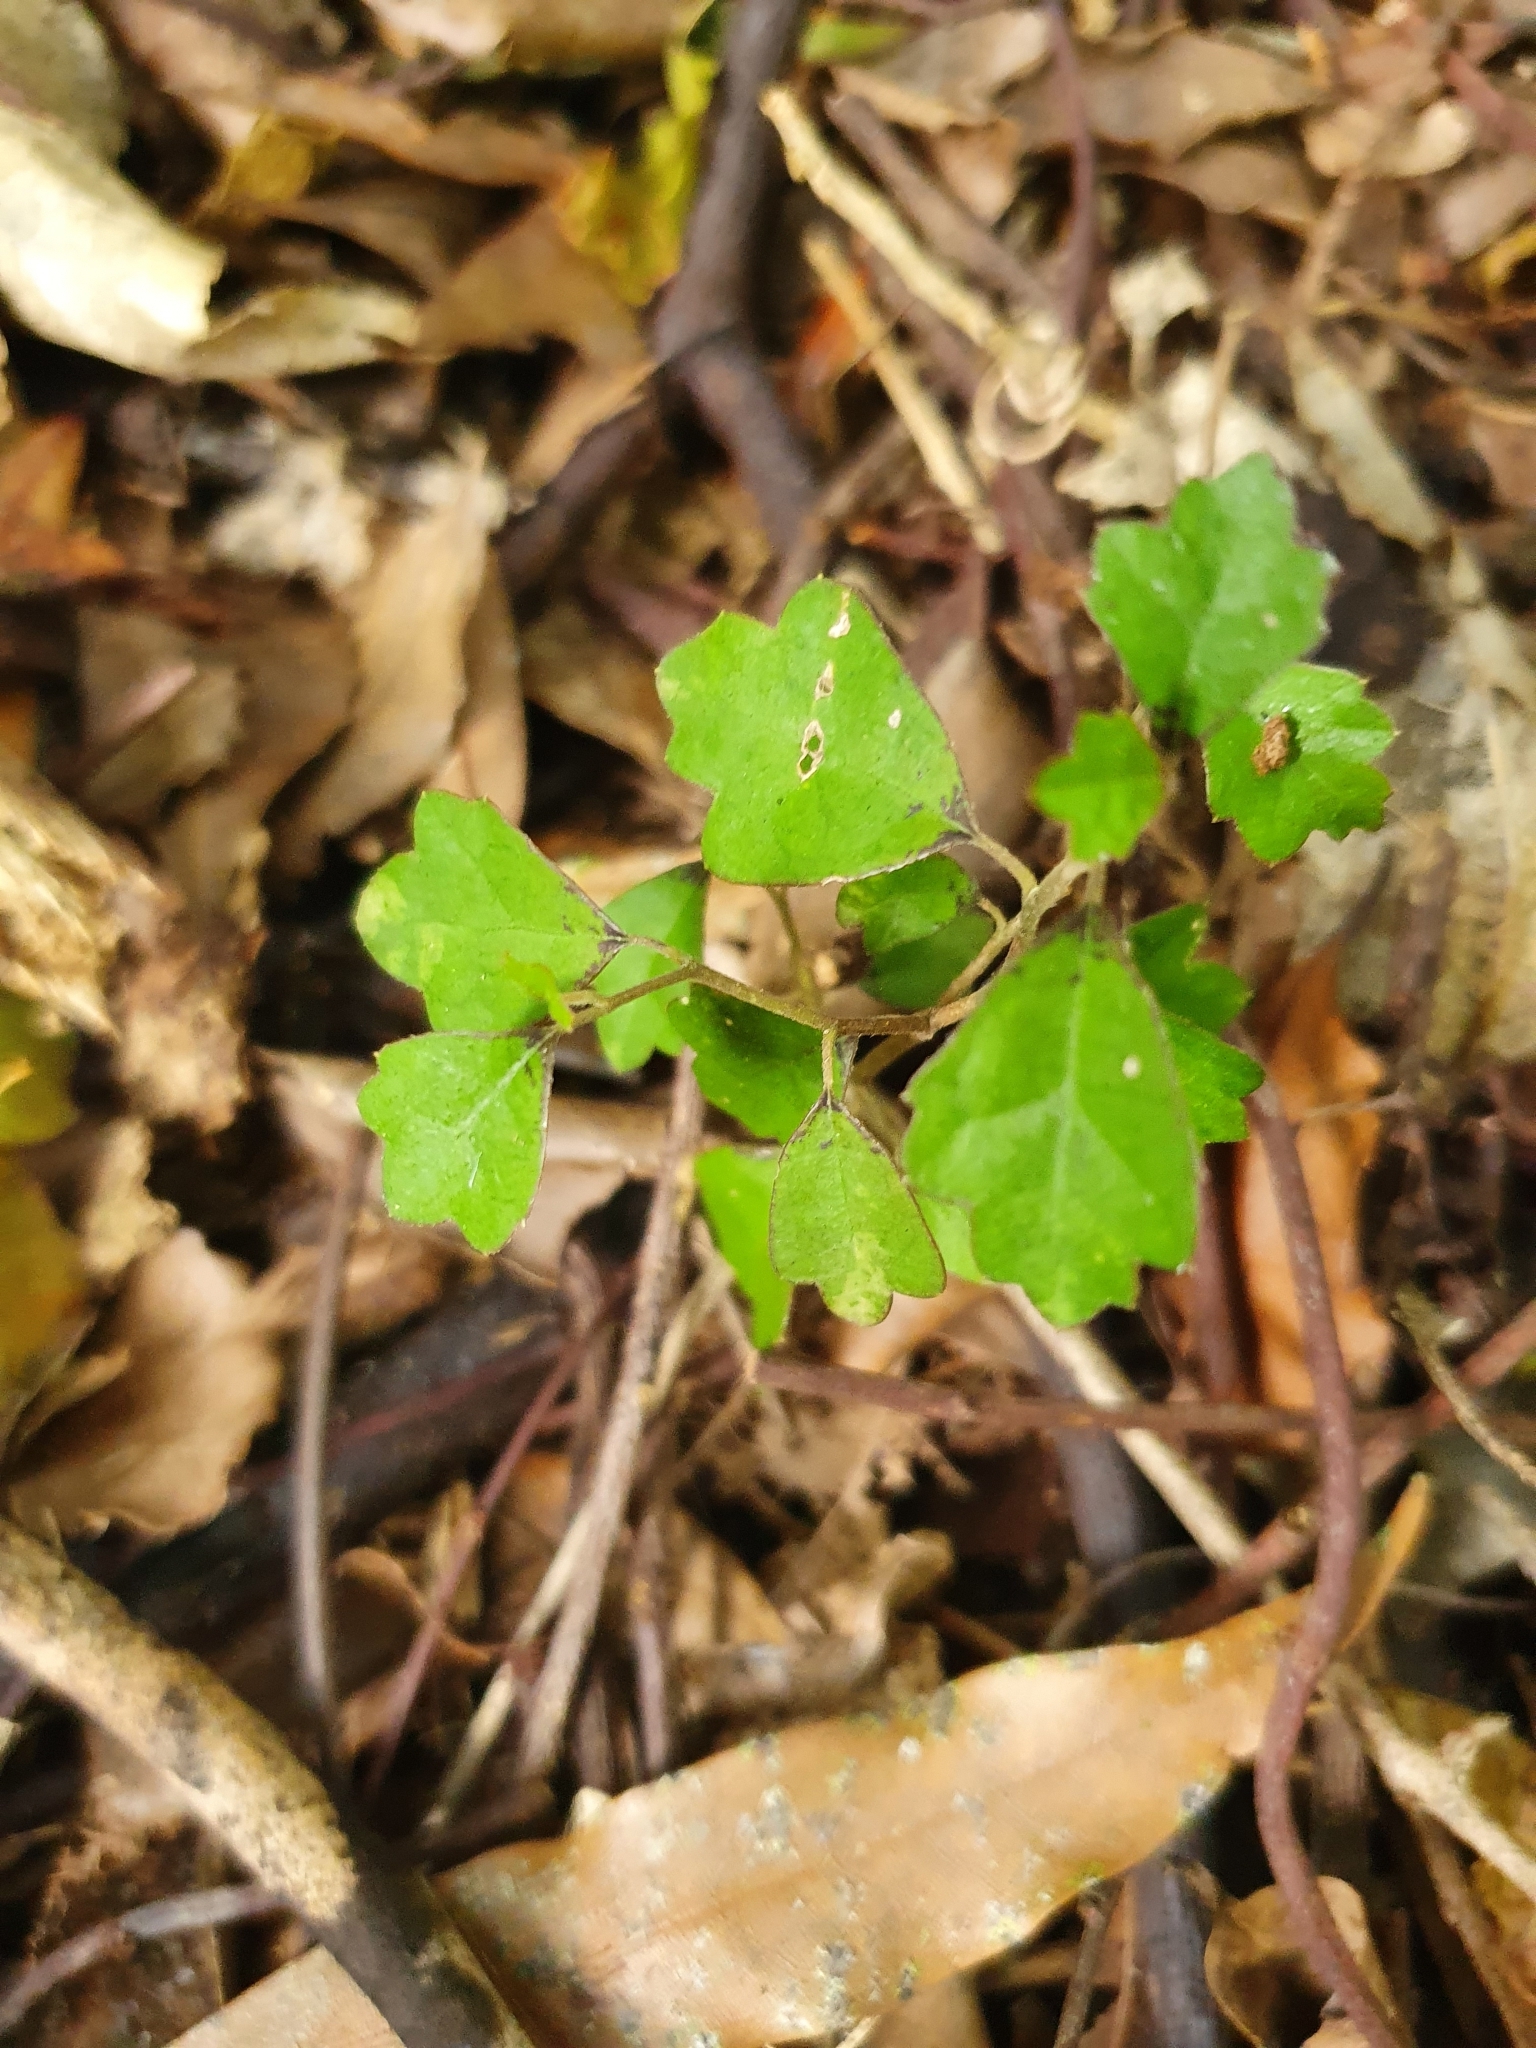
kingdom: Plantae
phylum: Tracheophyta
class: Magnoliopsida
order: Apiales
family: Pennantiaceae
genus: Pennantia
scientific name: Pennantia corymbosa
